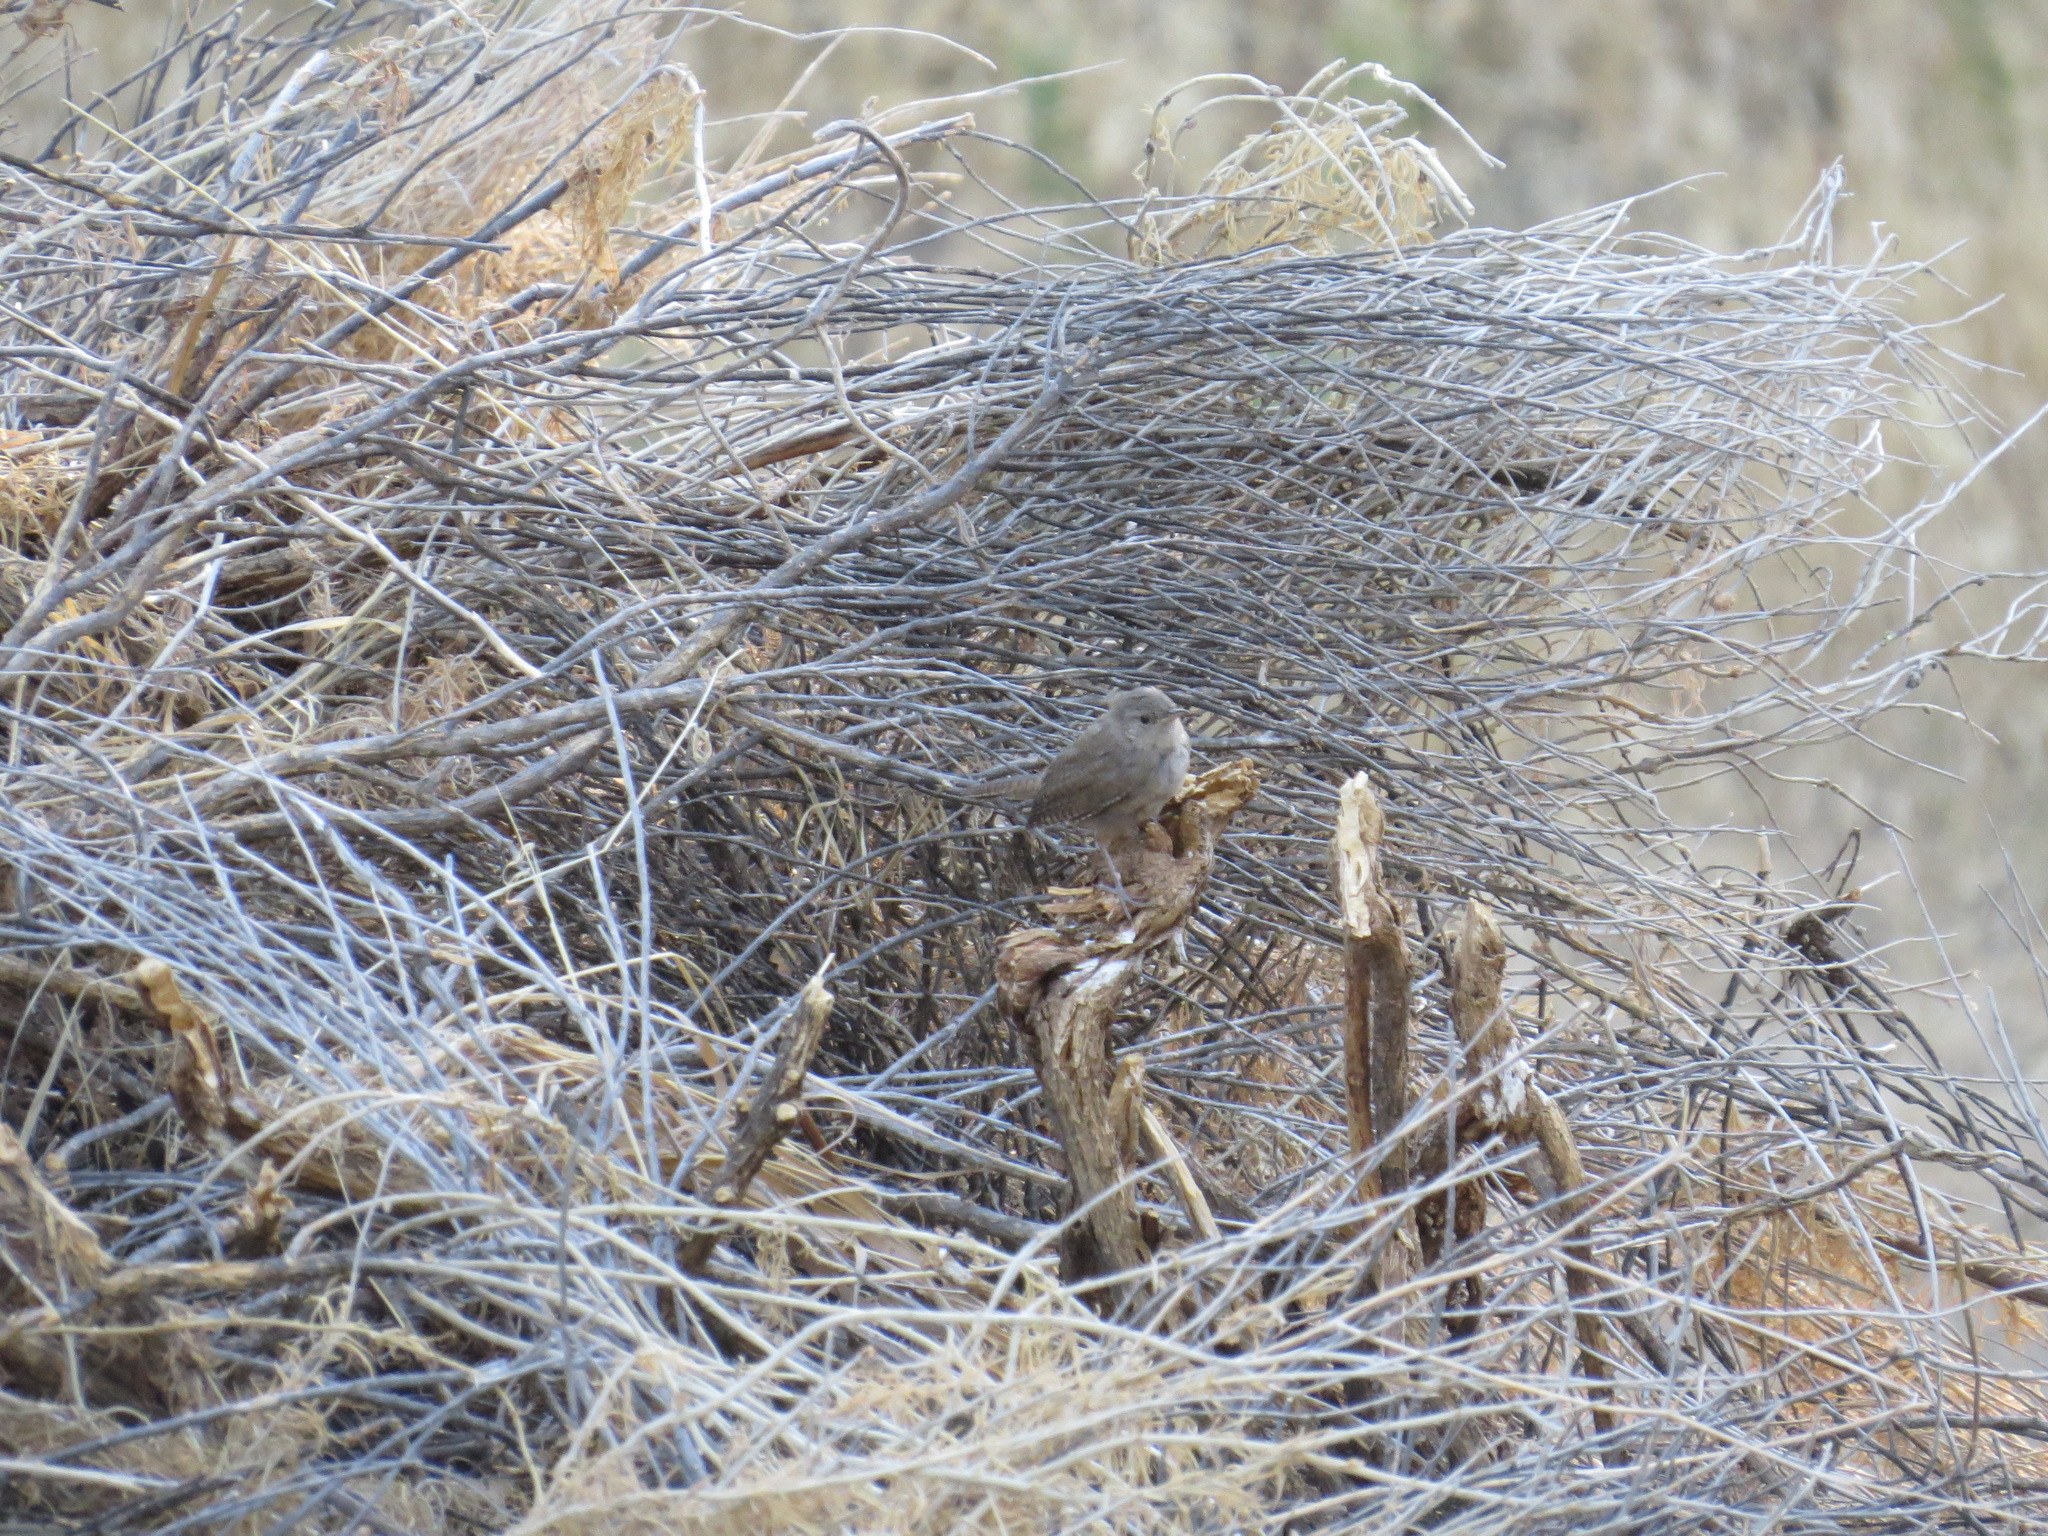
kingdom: Animalia
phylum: Chordata
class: Aves
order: Passeriformes
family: Troglodytidae
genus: Troglodytes
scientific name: Troglodytes aedon
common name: House wren
